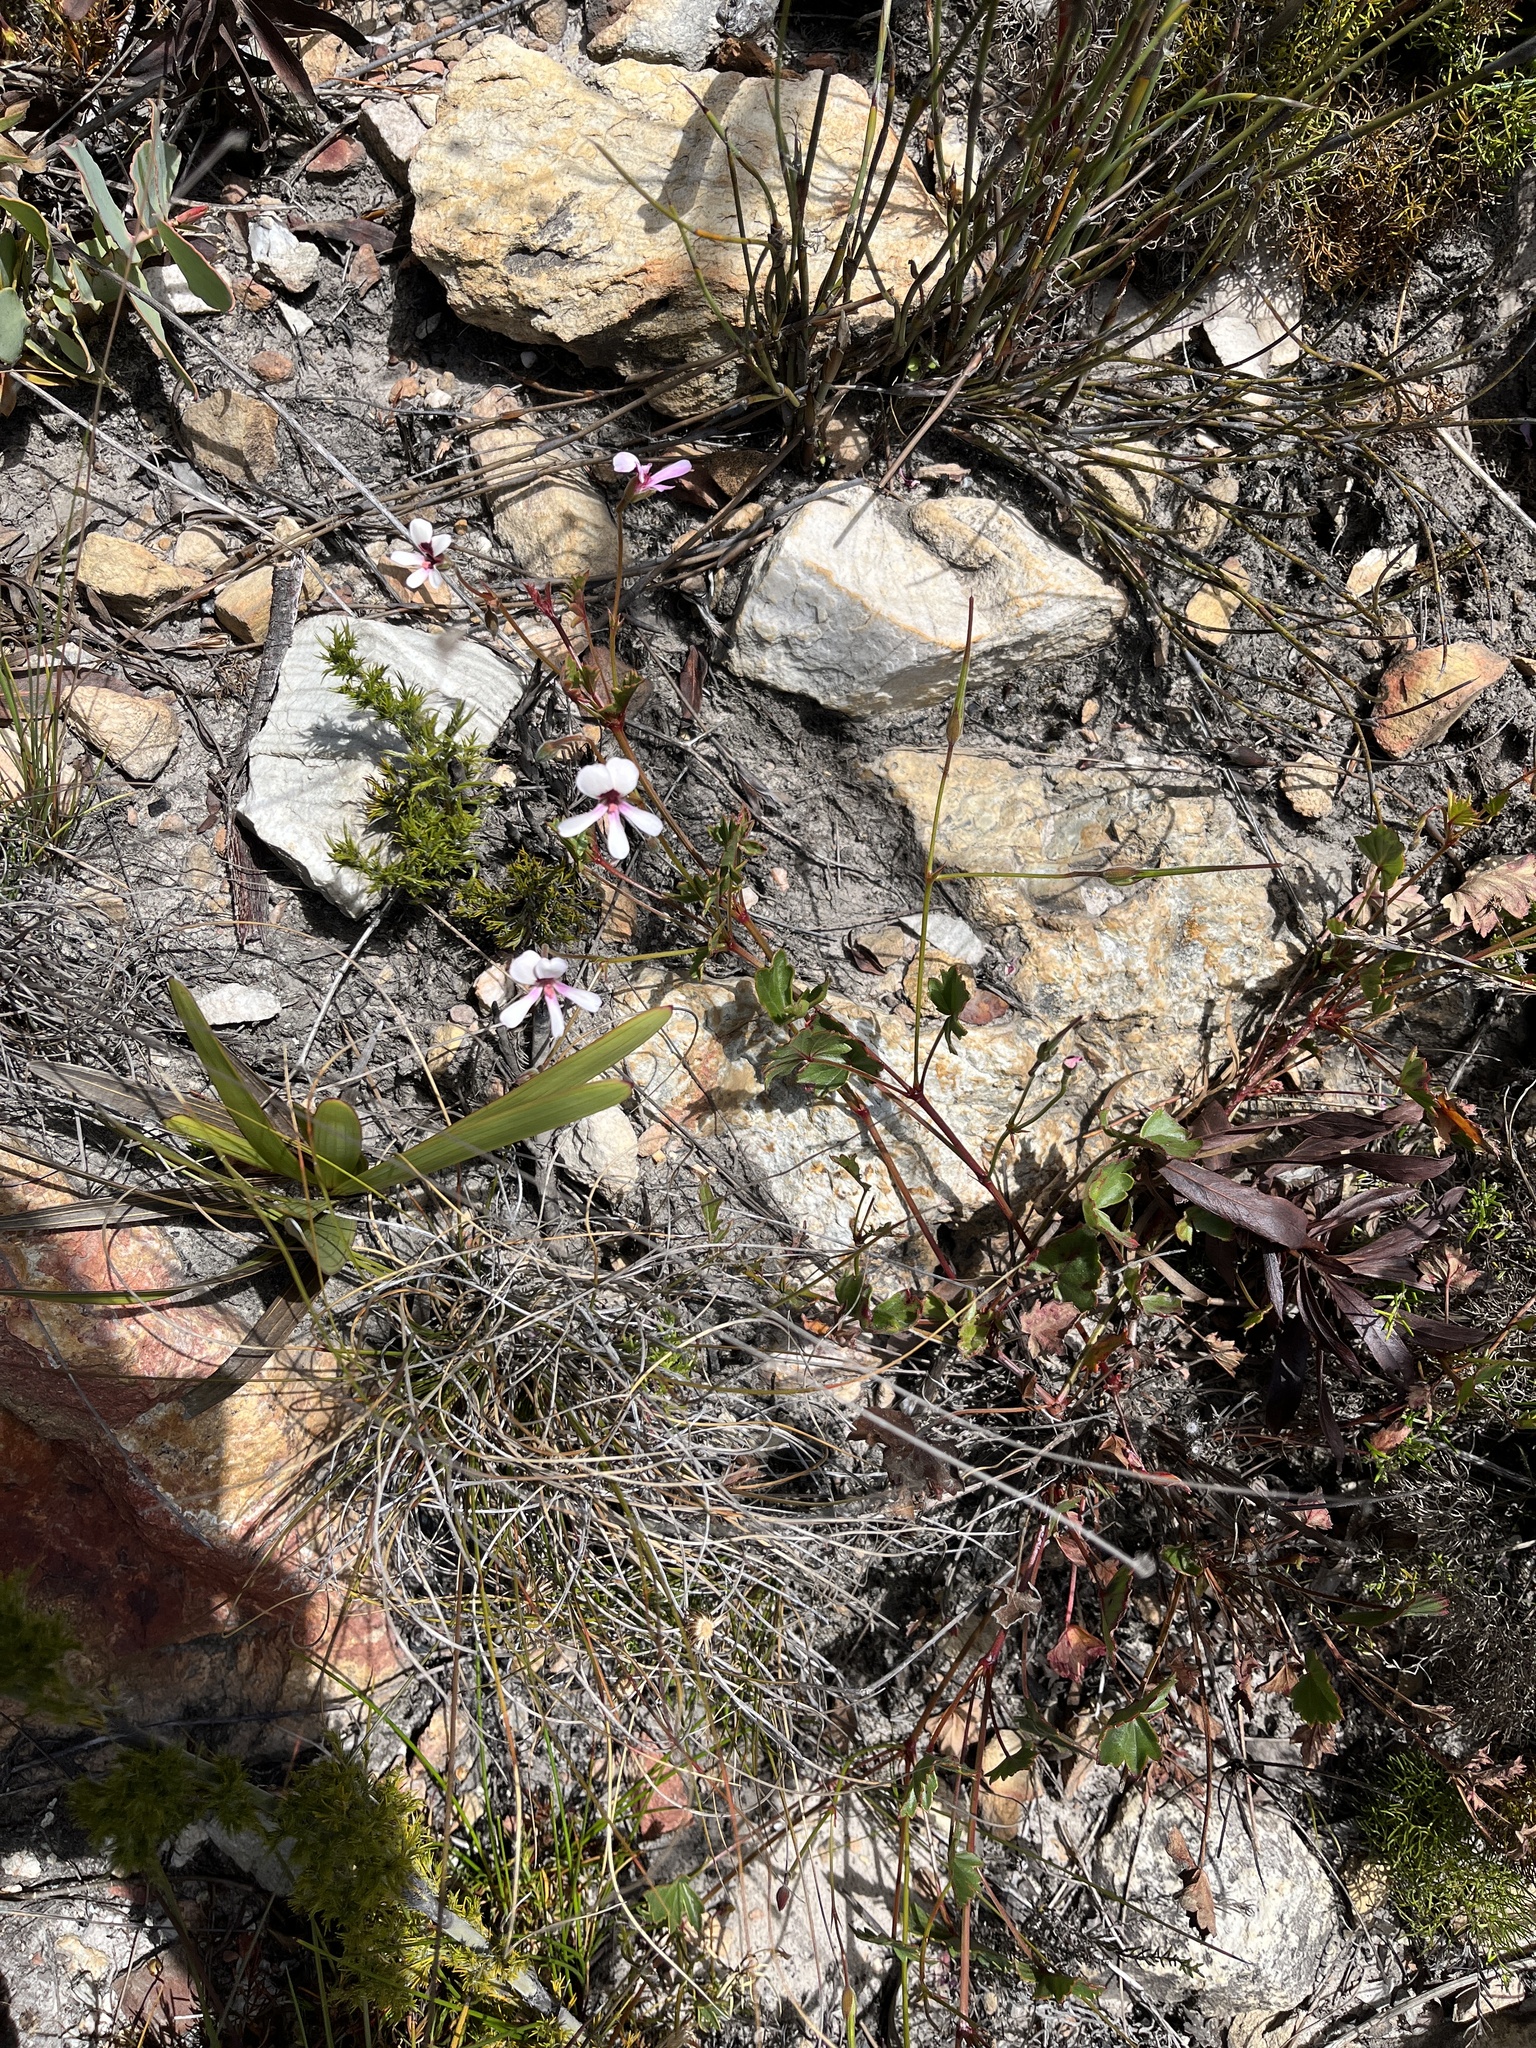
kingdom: Plantae
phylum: Tracheophyta
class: Magnoliopsida
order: Geraniales
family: Geraniaceae
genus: Pelargonium
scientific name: Pelargonium setulosum
